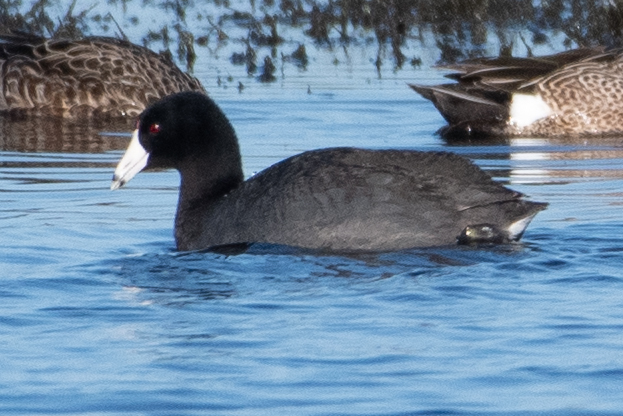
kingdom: Animalia
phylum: Chordata
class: Aves
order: Gruiformes
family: Rallidae
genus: Fulica
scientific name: Fulica americana
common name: American coot
